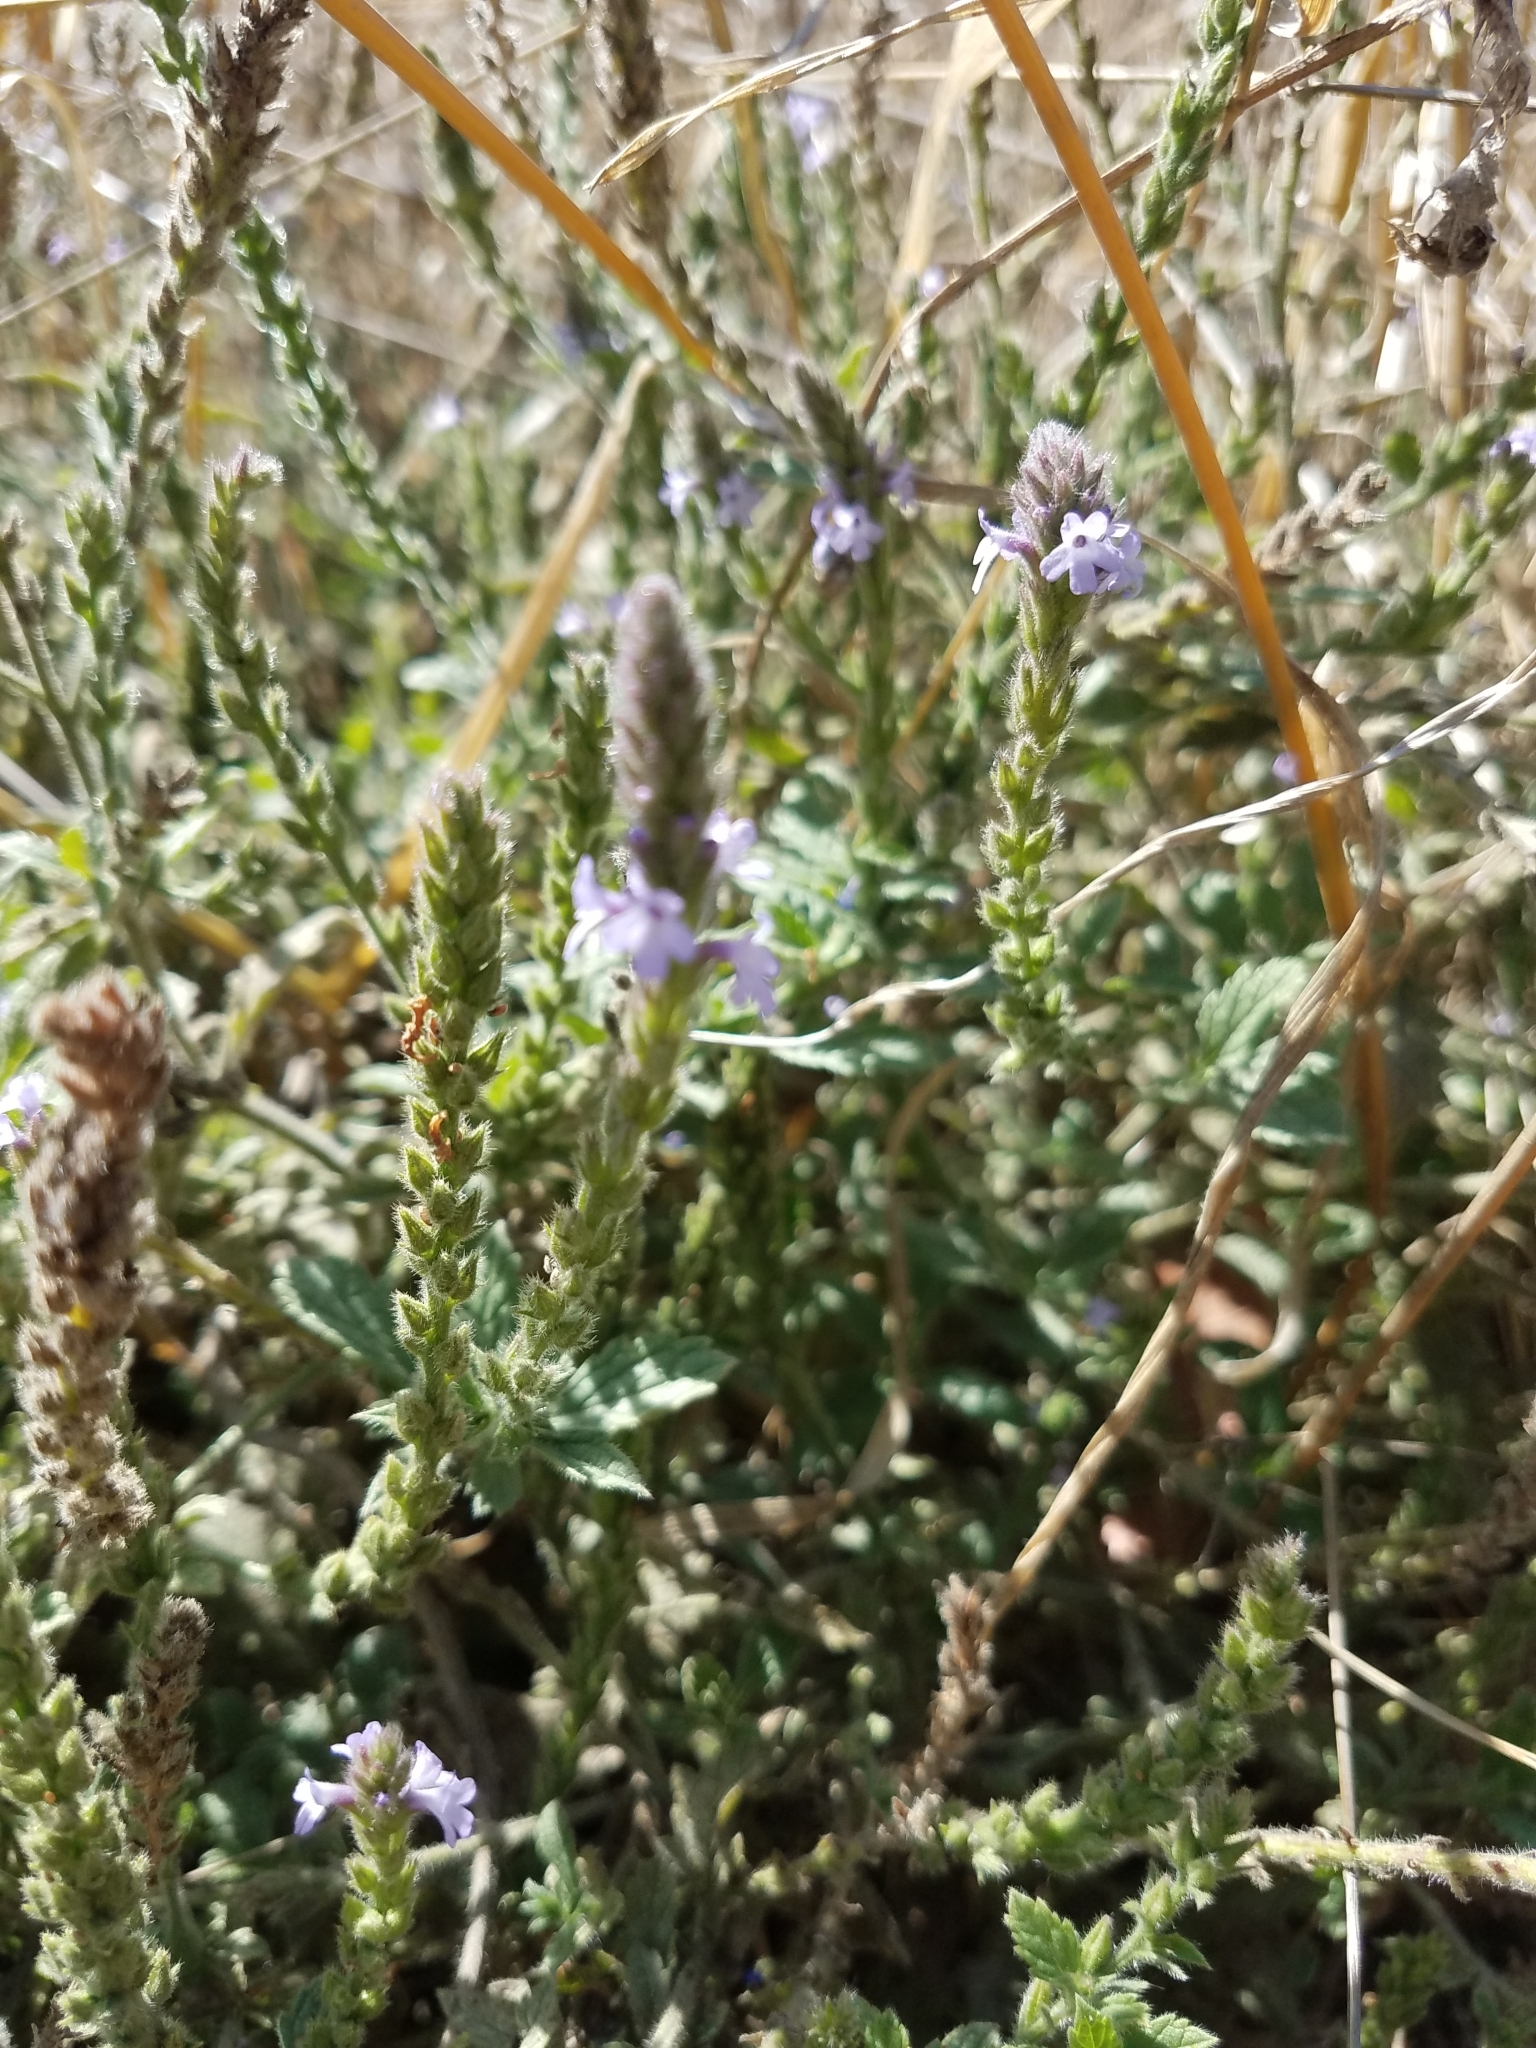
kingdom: Plantae
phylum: Tracheophyta
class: Magnoliopsida
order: Lamiales
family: Verbenaceae
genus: Verbena
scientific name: Verbena lasiostachys
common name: Vervain
